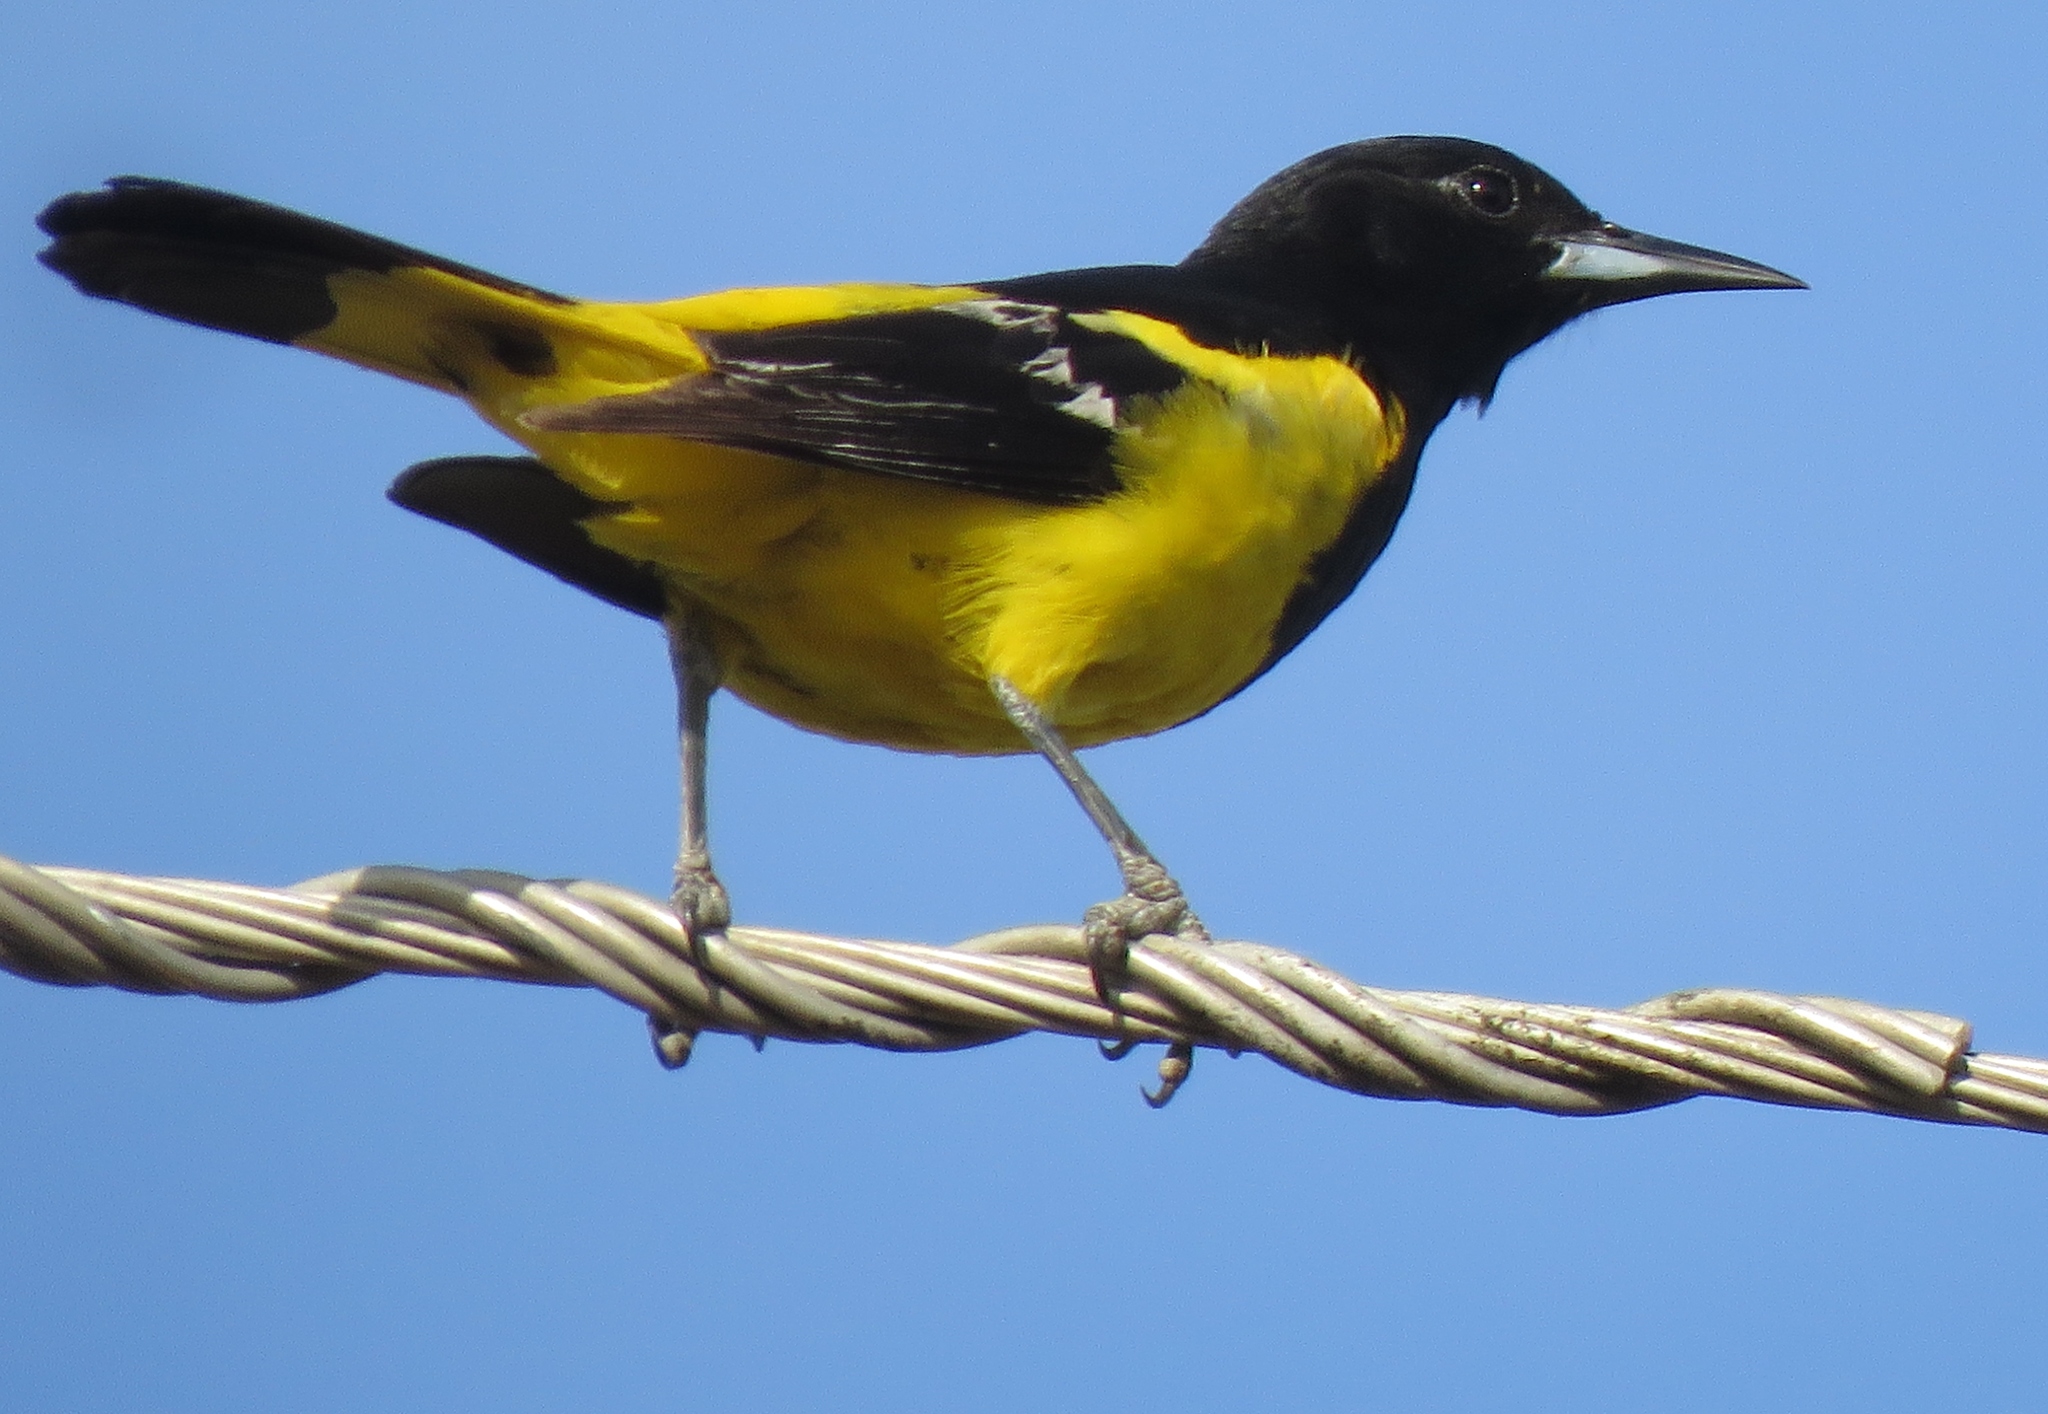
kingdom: Animalia
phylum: Chordata
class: Aves
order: Passeriformes
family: Icteridae
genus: Icterus
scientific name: Icterus parisorum
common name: Scott's oriole
